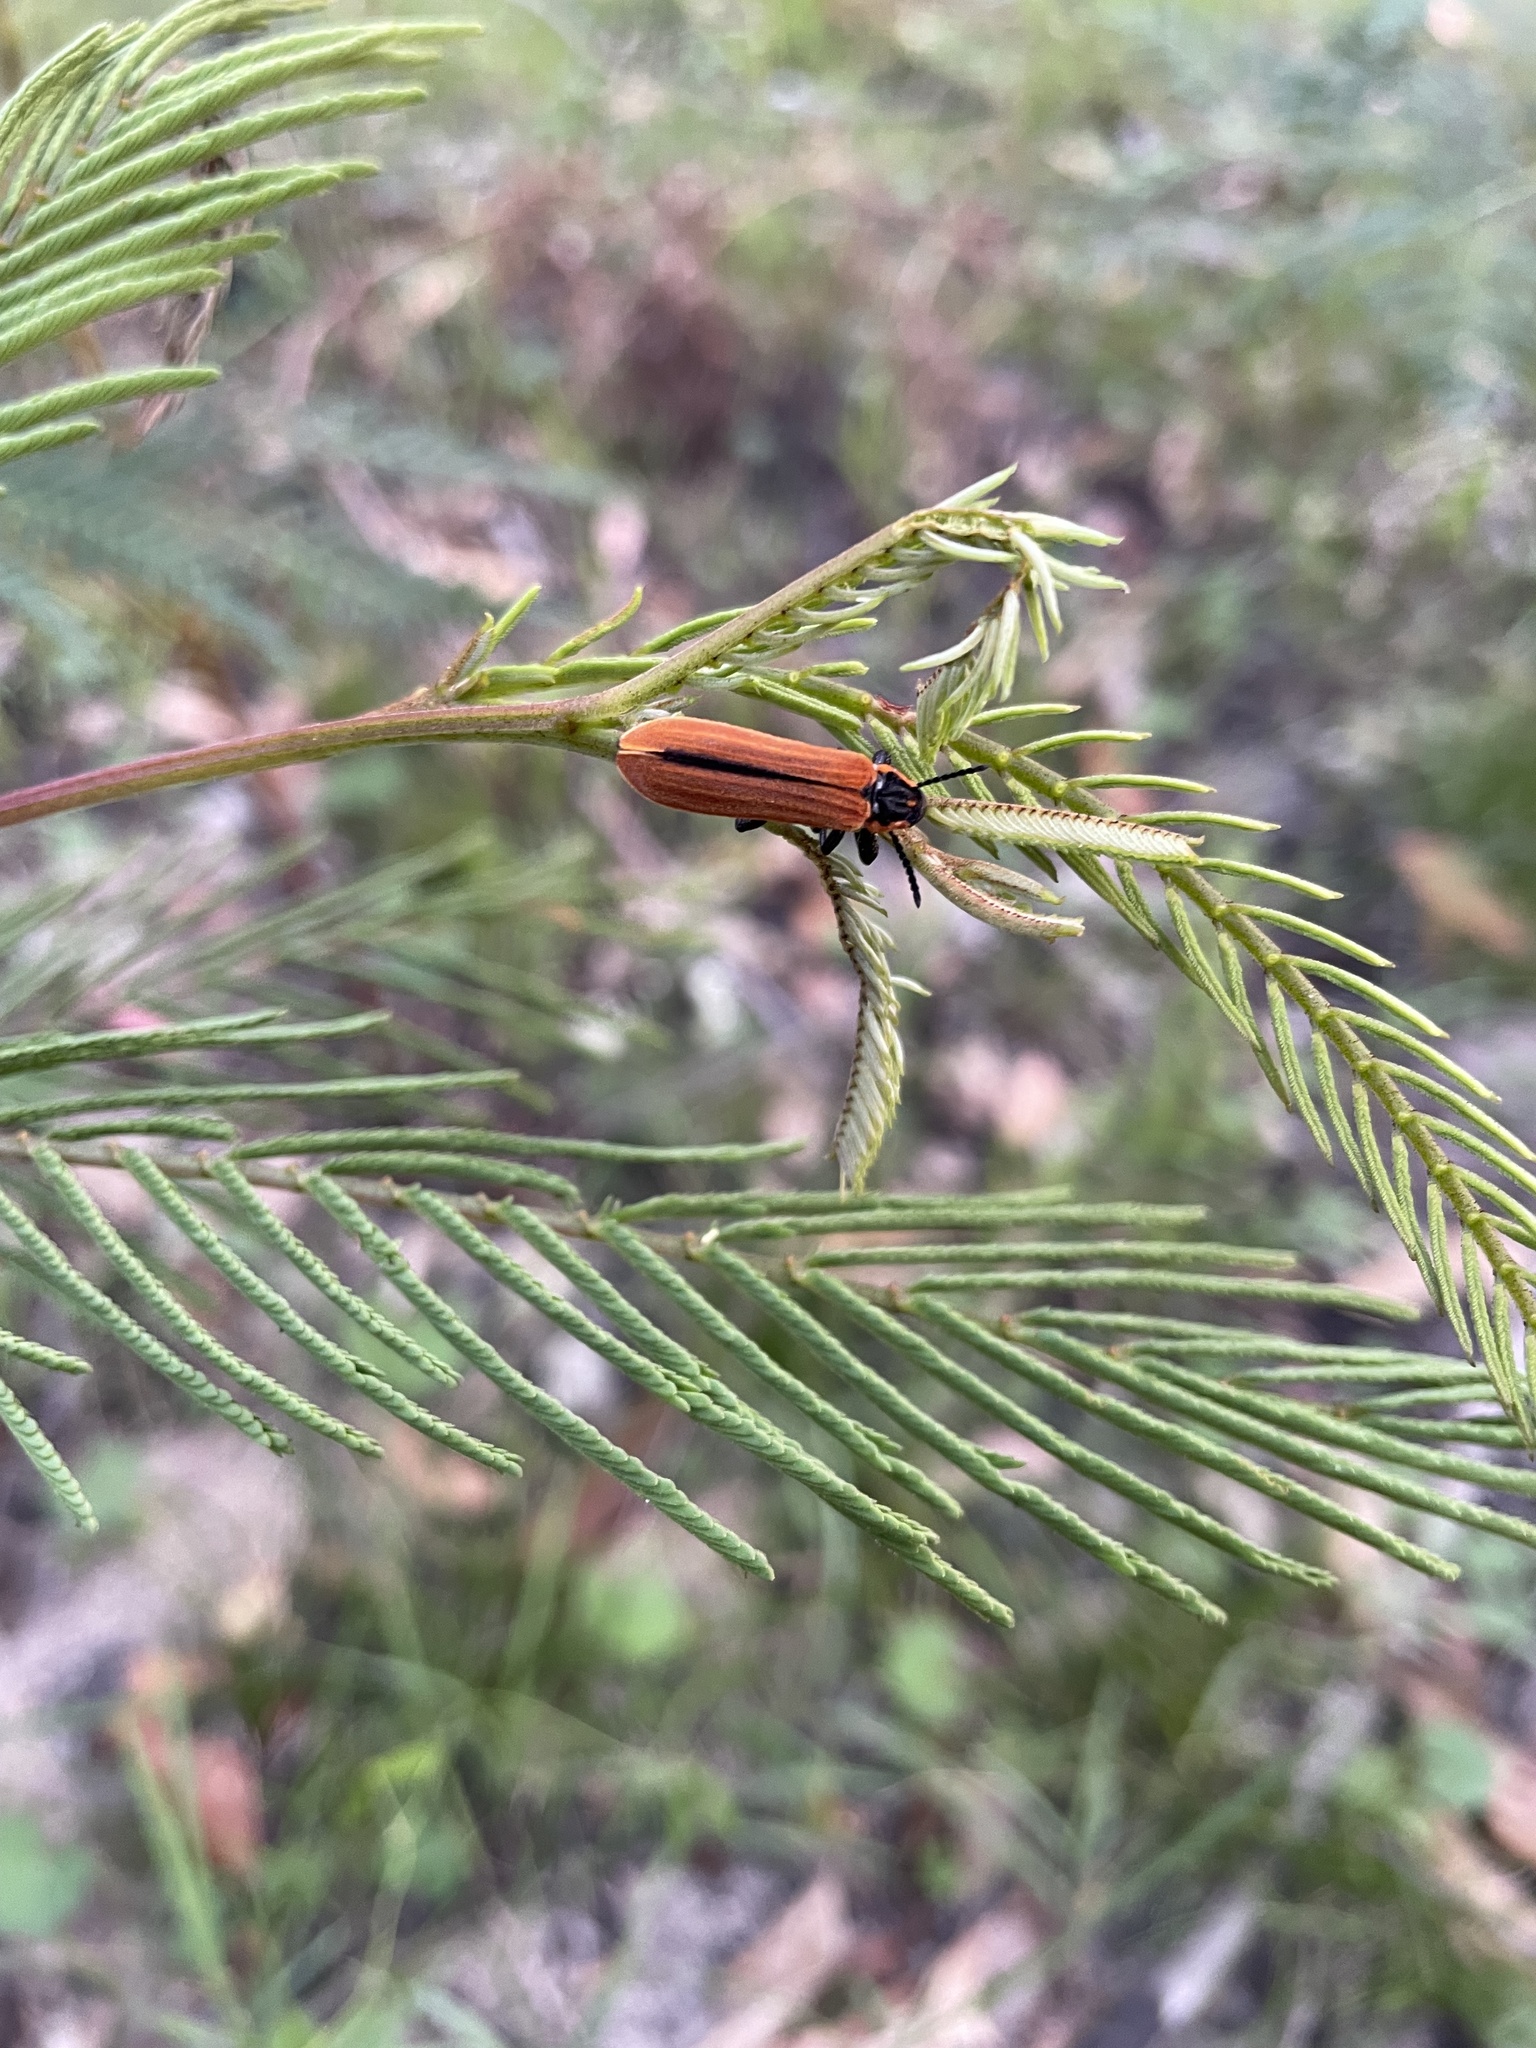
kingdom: Animalia
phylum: Arthropoda
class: Insecta
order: Coleoptera
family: Belidae
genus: Rhinotia
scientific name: Rhinotia haemoptera
